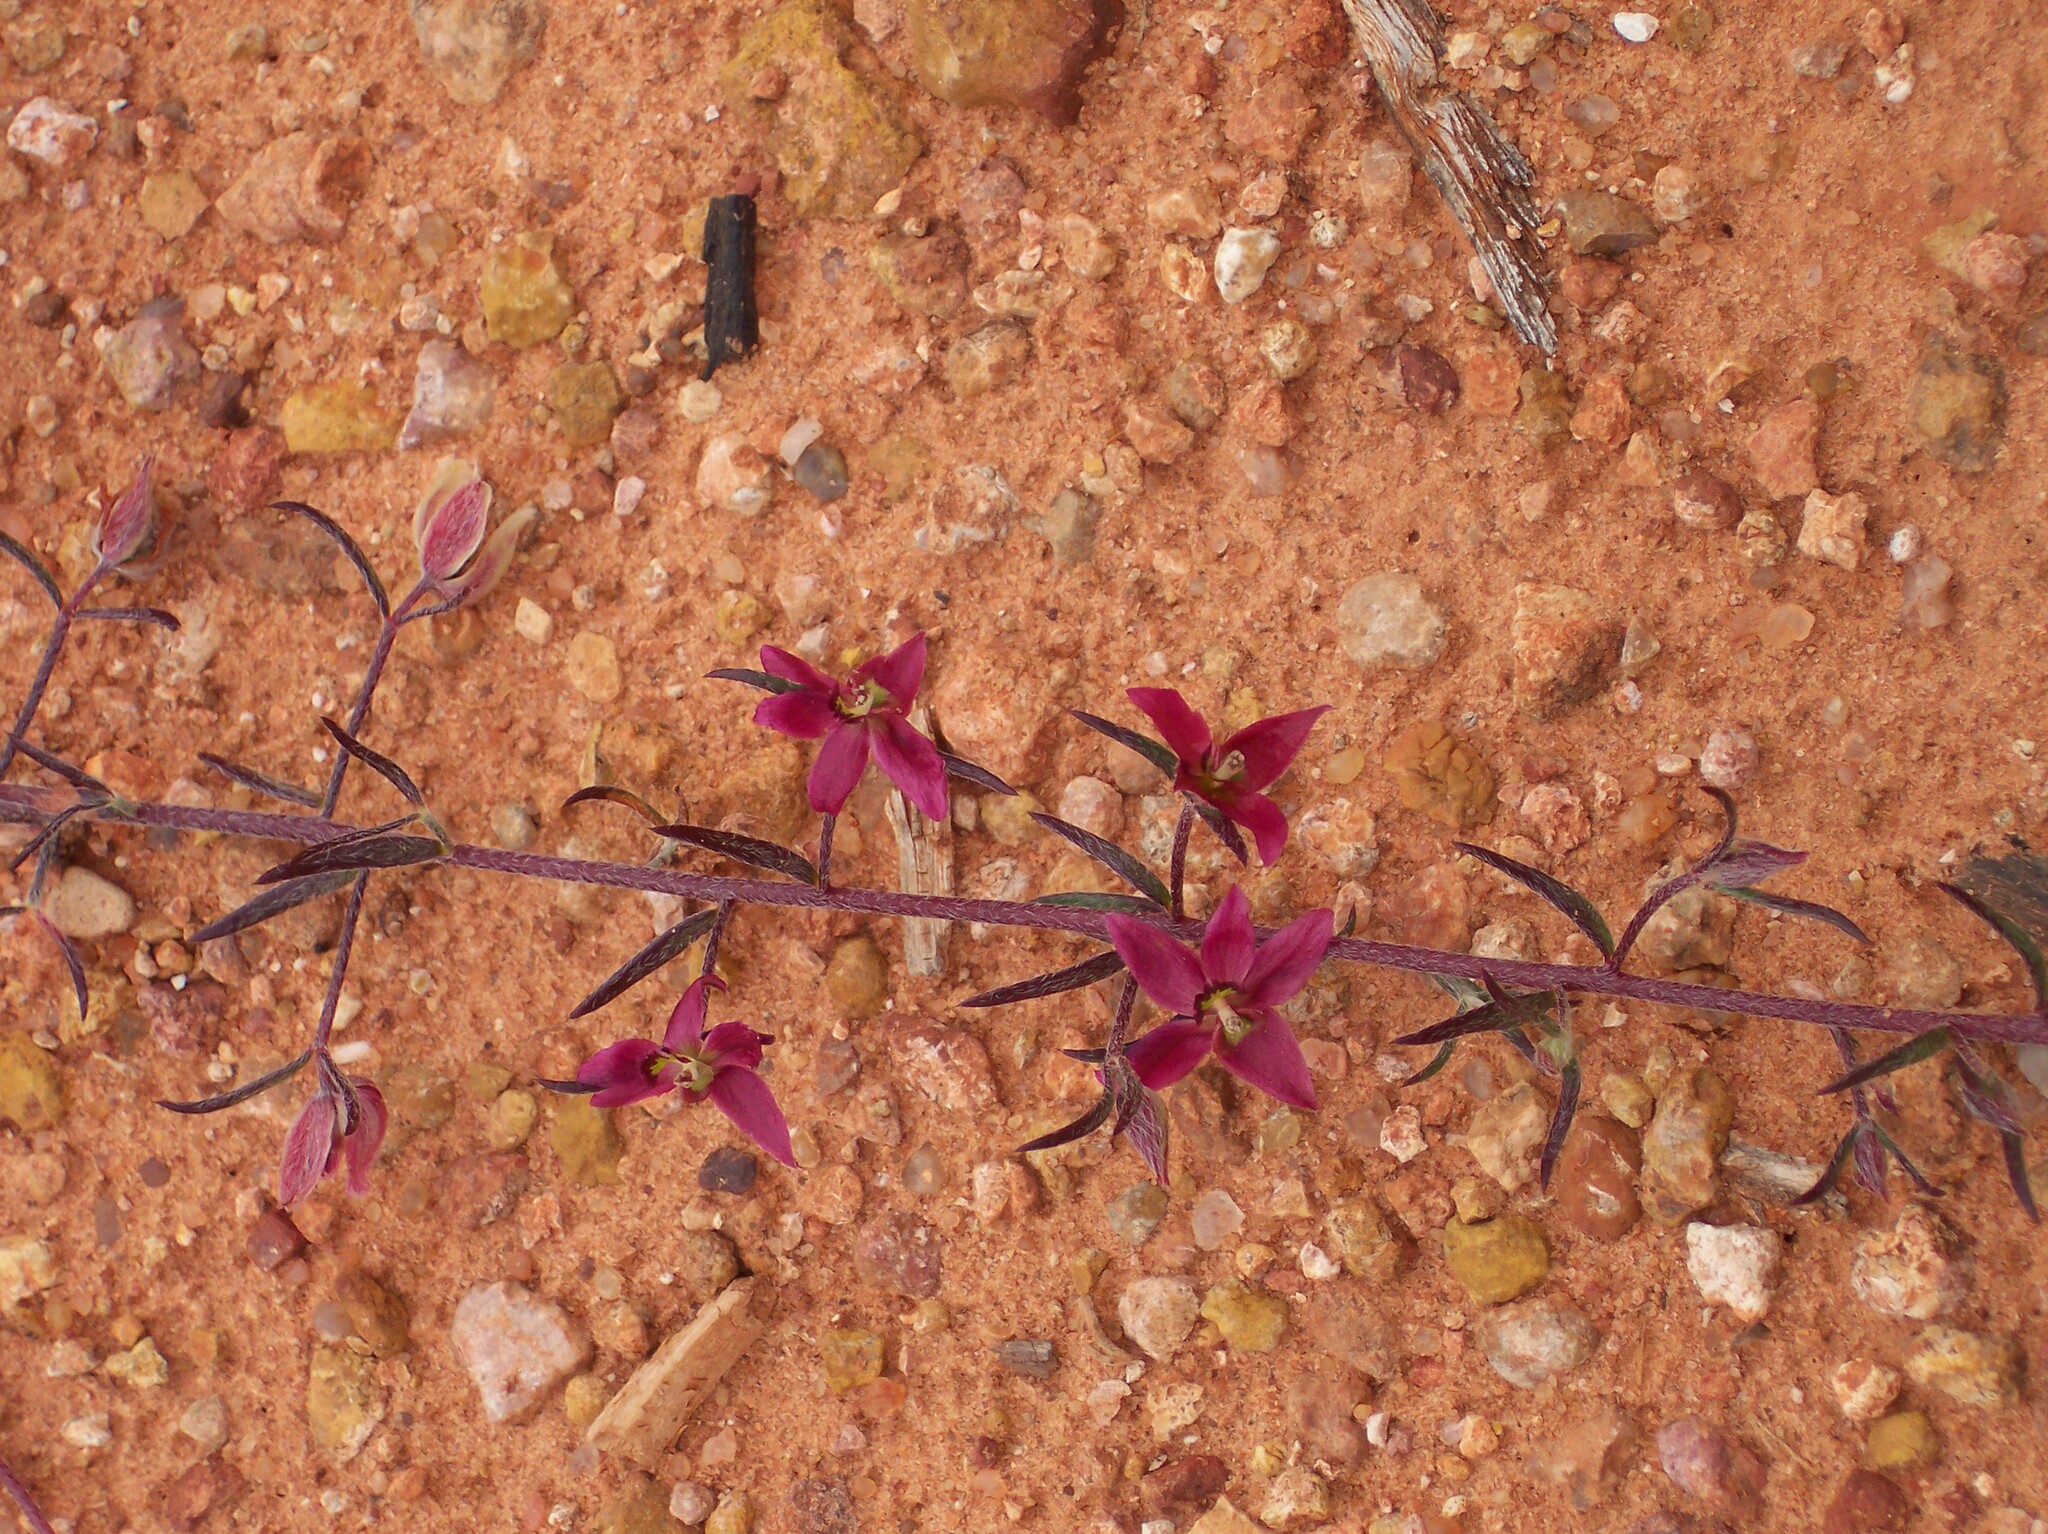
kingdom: Plantae
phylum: Tracheophyta
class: Magnoliopsida
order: Zygophyllales
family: Krameriaceae
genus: Krameria
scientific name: Krameria lanceolata
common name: Ratany
